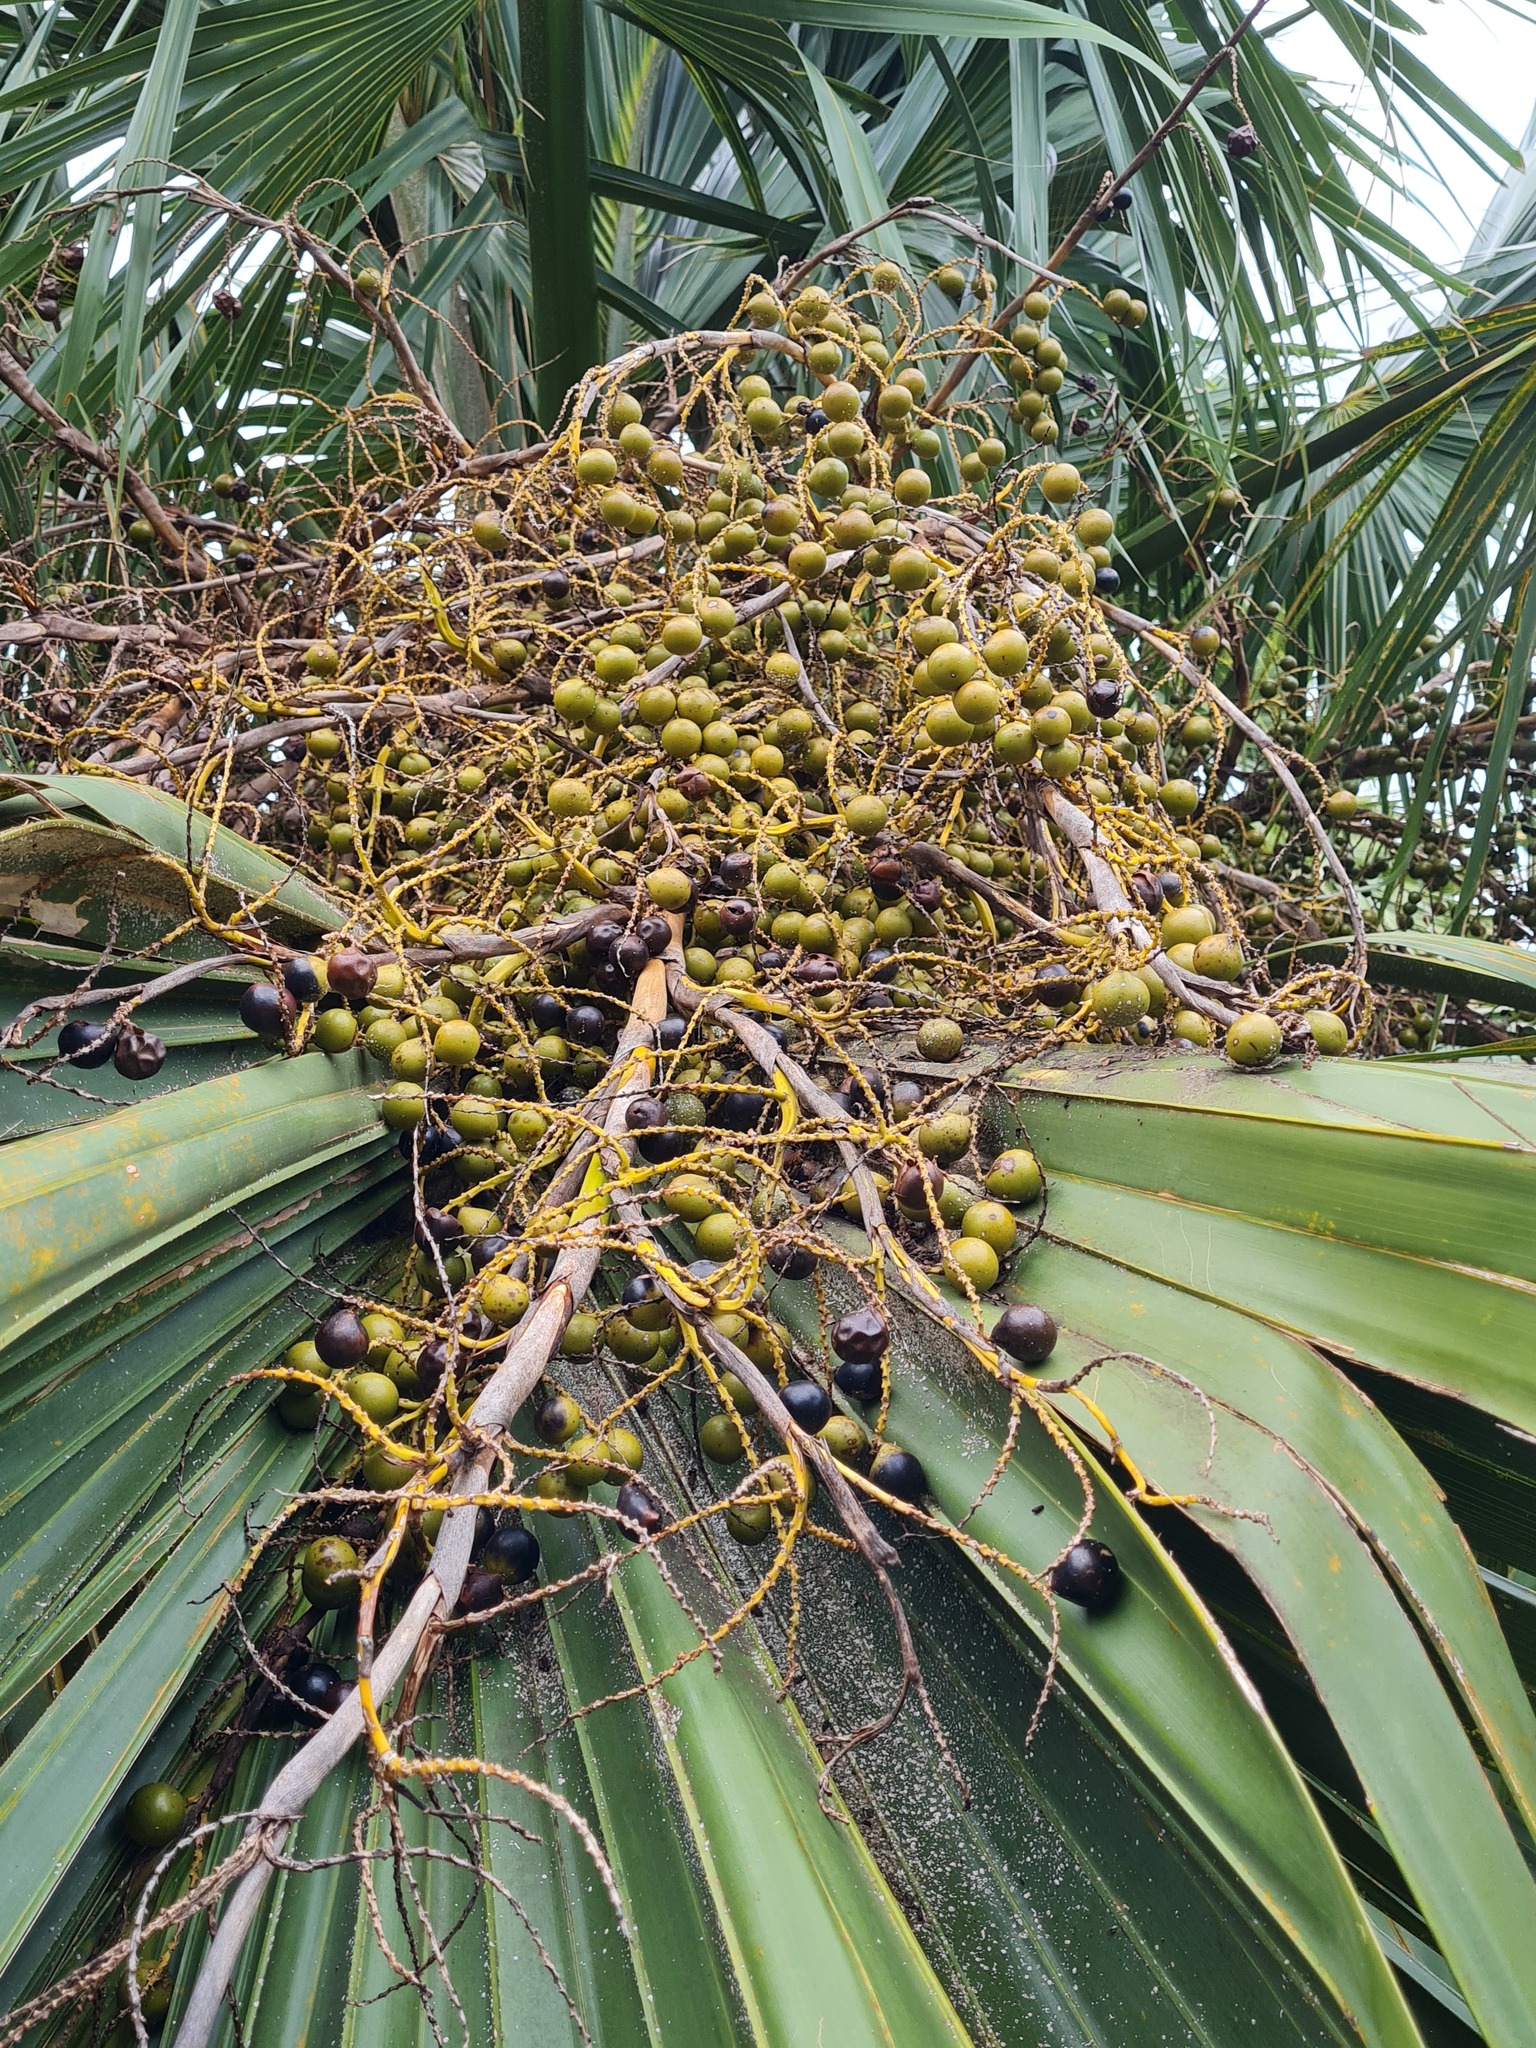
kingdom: Plantae
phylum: Tracheophyta
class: Liliopsida
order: Arecales
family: Arecaceae
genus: Sabal
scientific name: Sabal bermudana
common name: Bermuda palm
